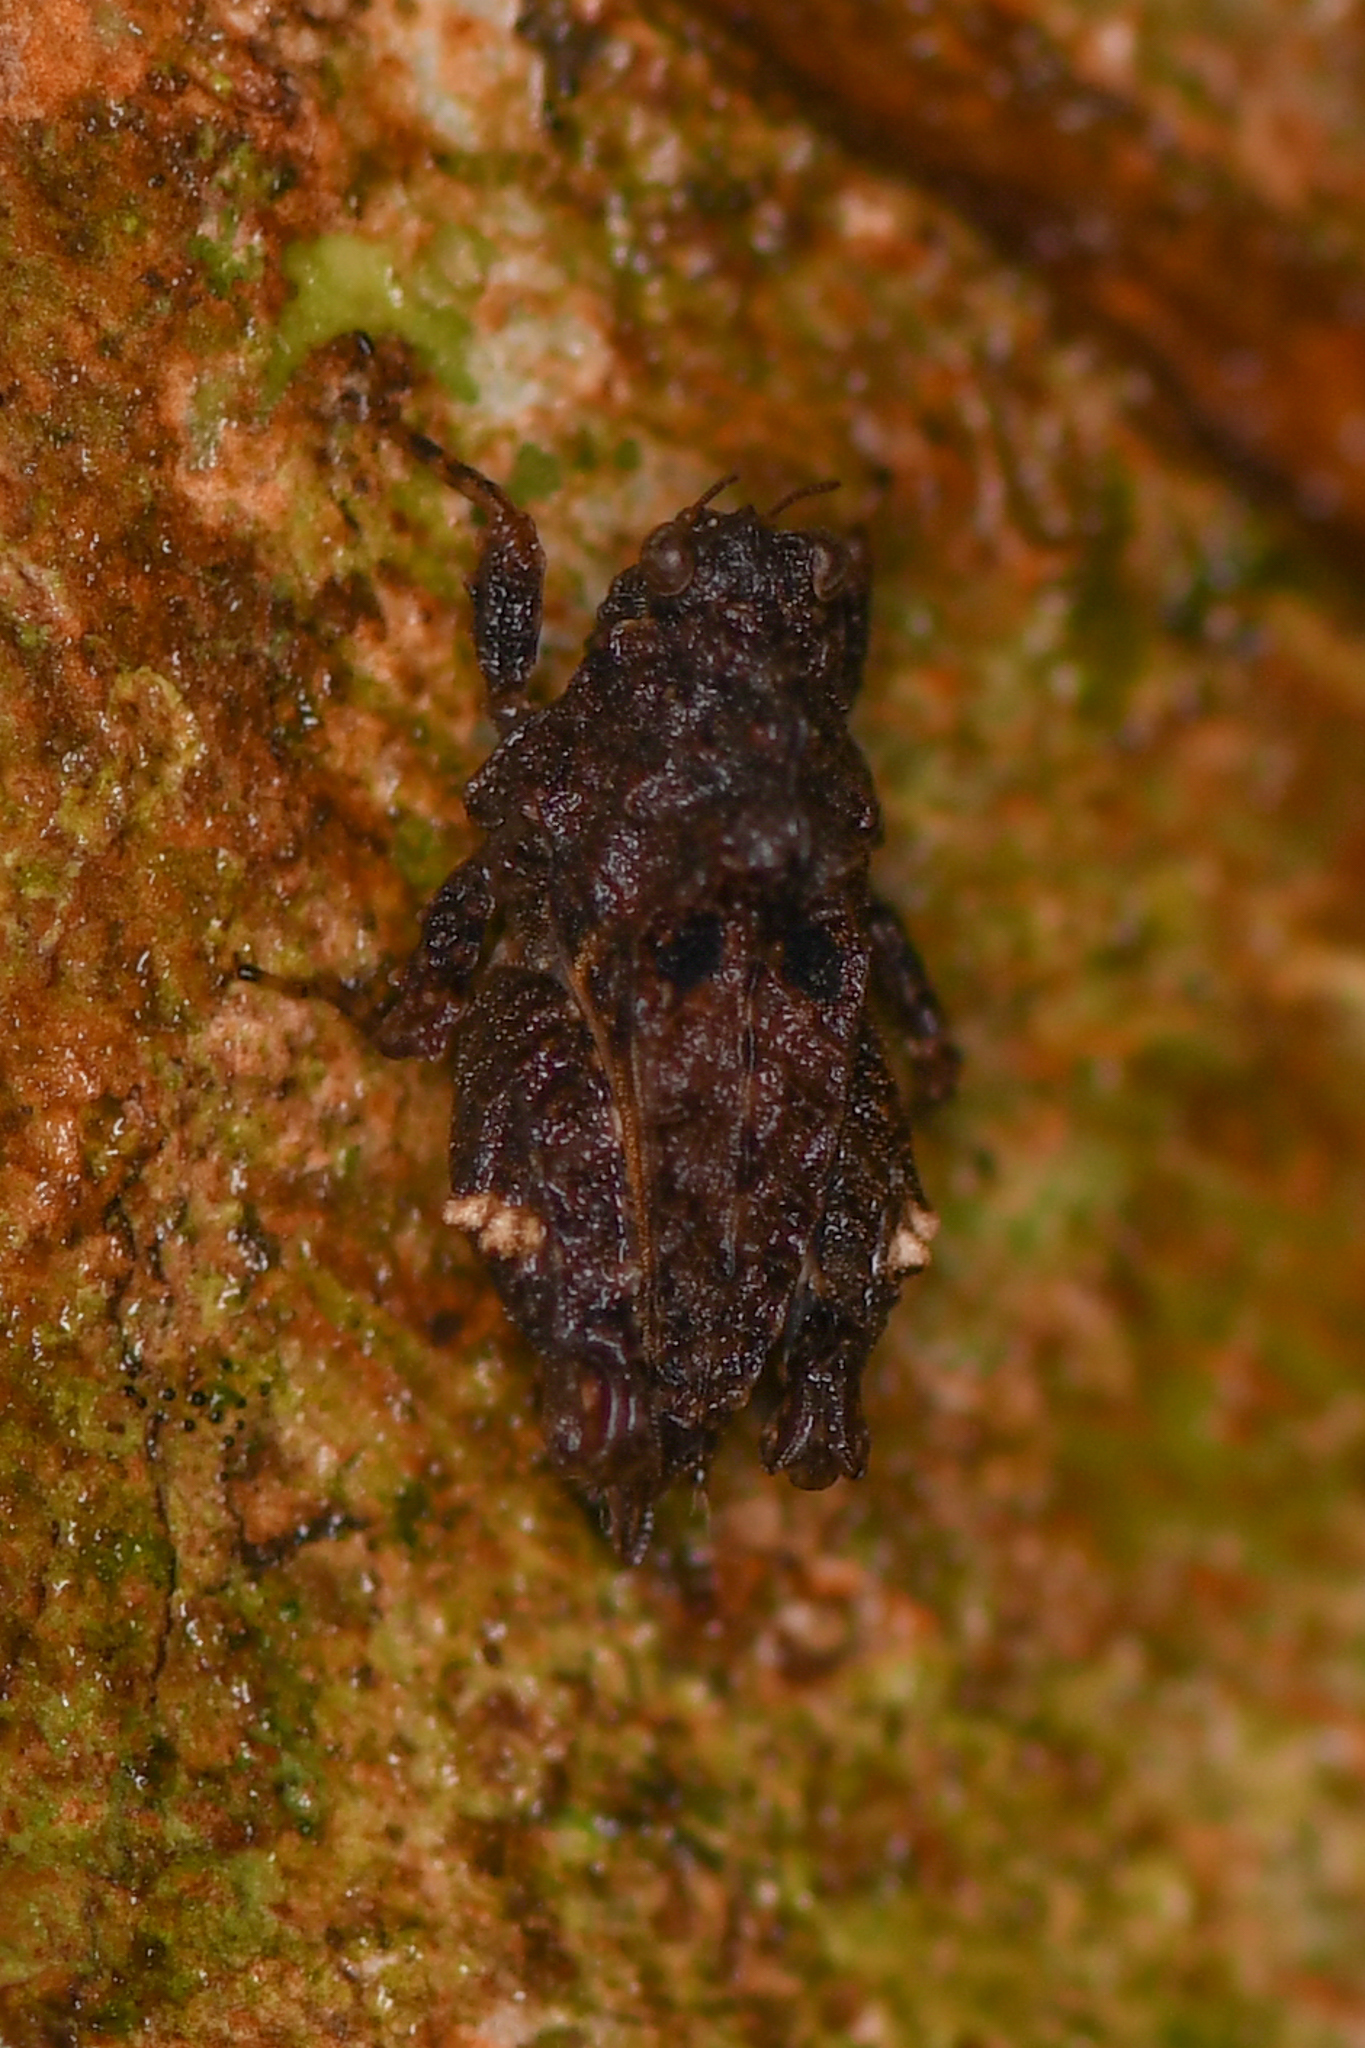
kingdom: Animalia
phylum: Arthropoda
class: Insecta
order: Orthoptera
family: Tetrigidae
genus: Metrodora
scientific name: Metrodora
